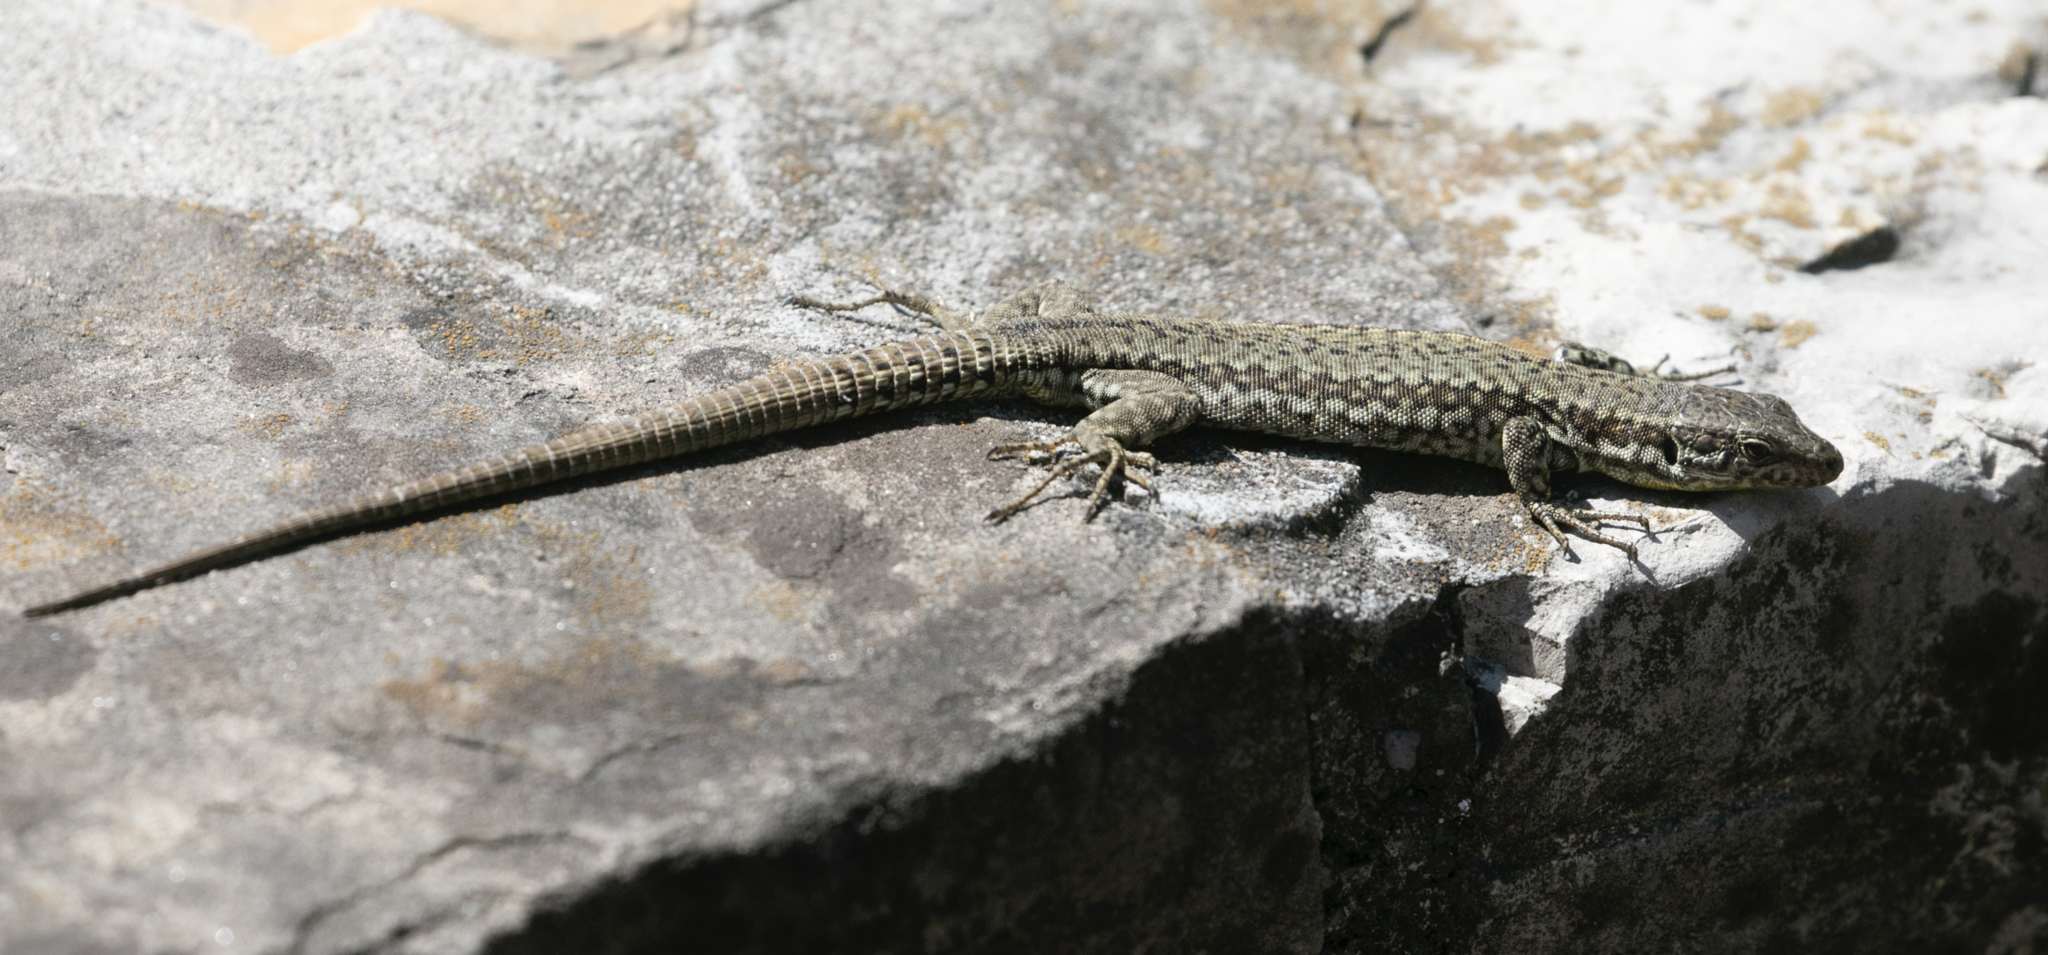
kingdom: Animalia
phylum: Chordata
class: Squamata
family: Lacertidae
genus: Podarcis
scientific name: Podarcis muralis
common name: Common wall lizard
